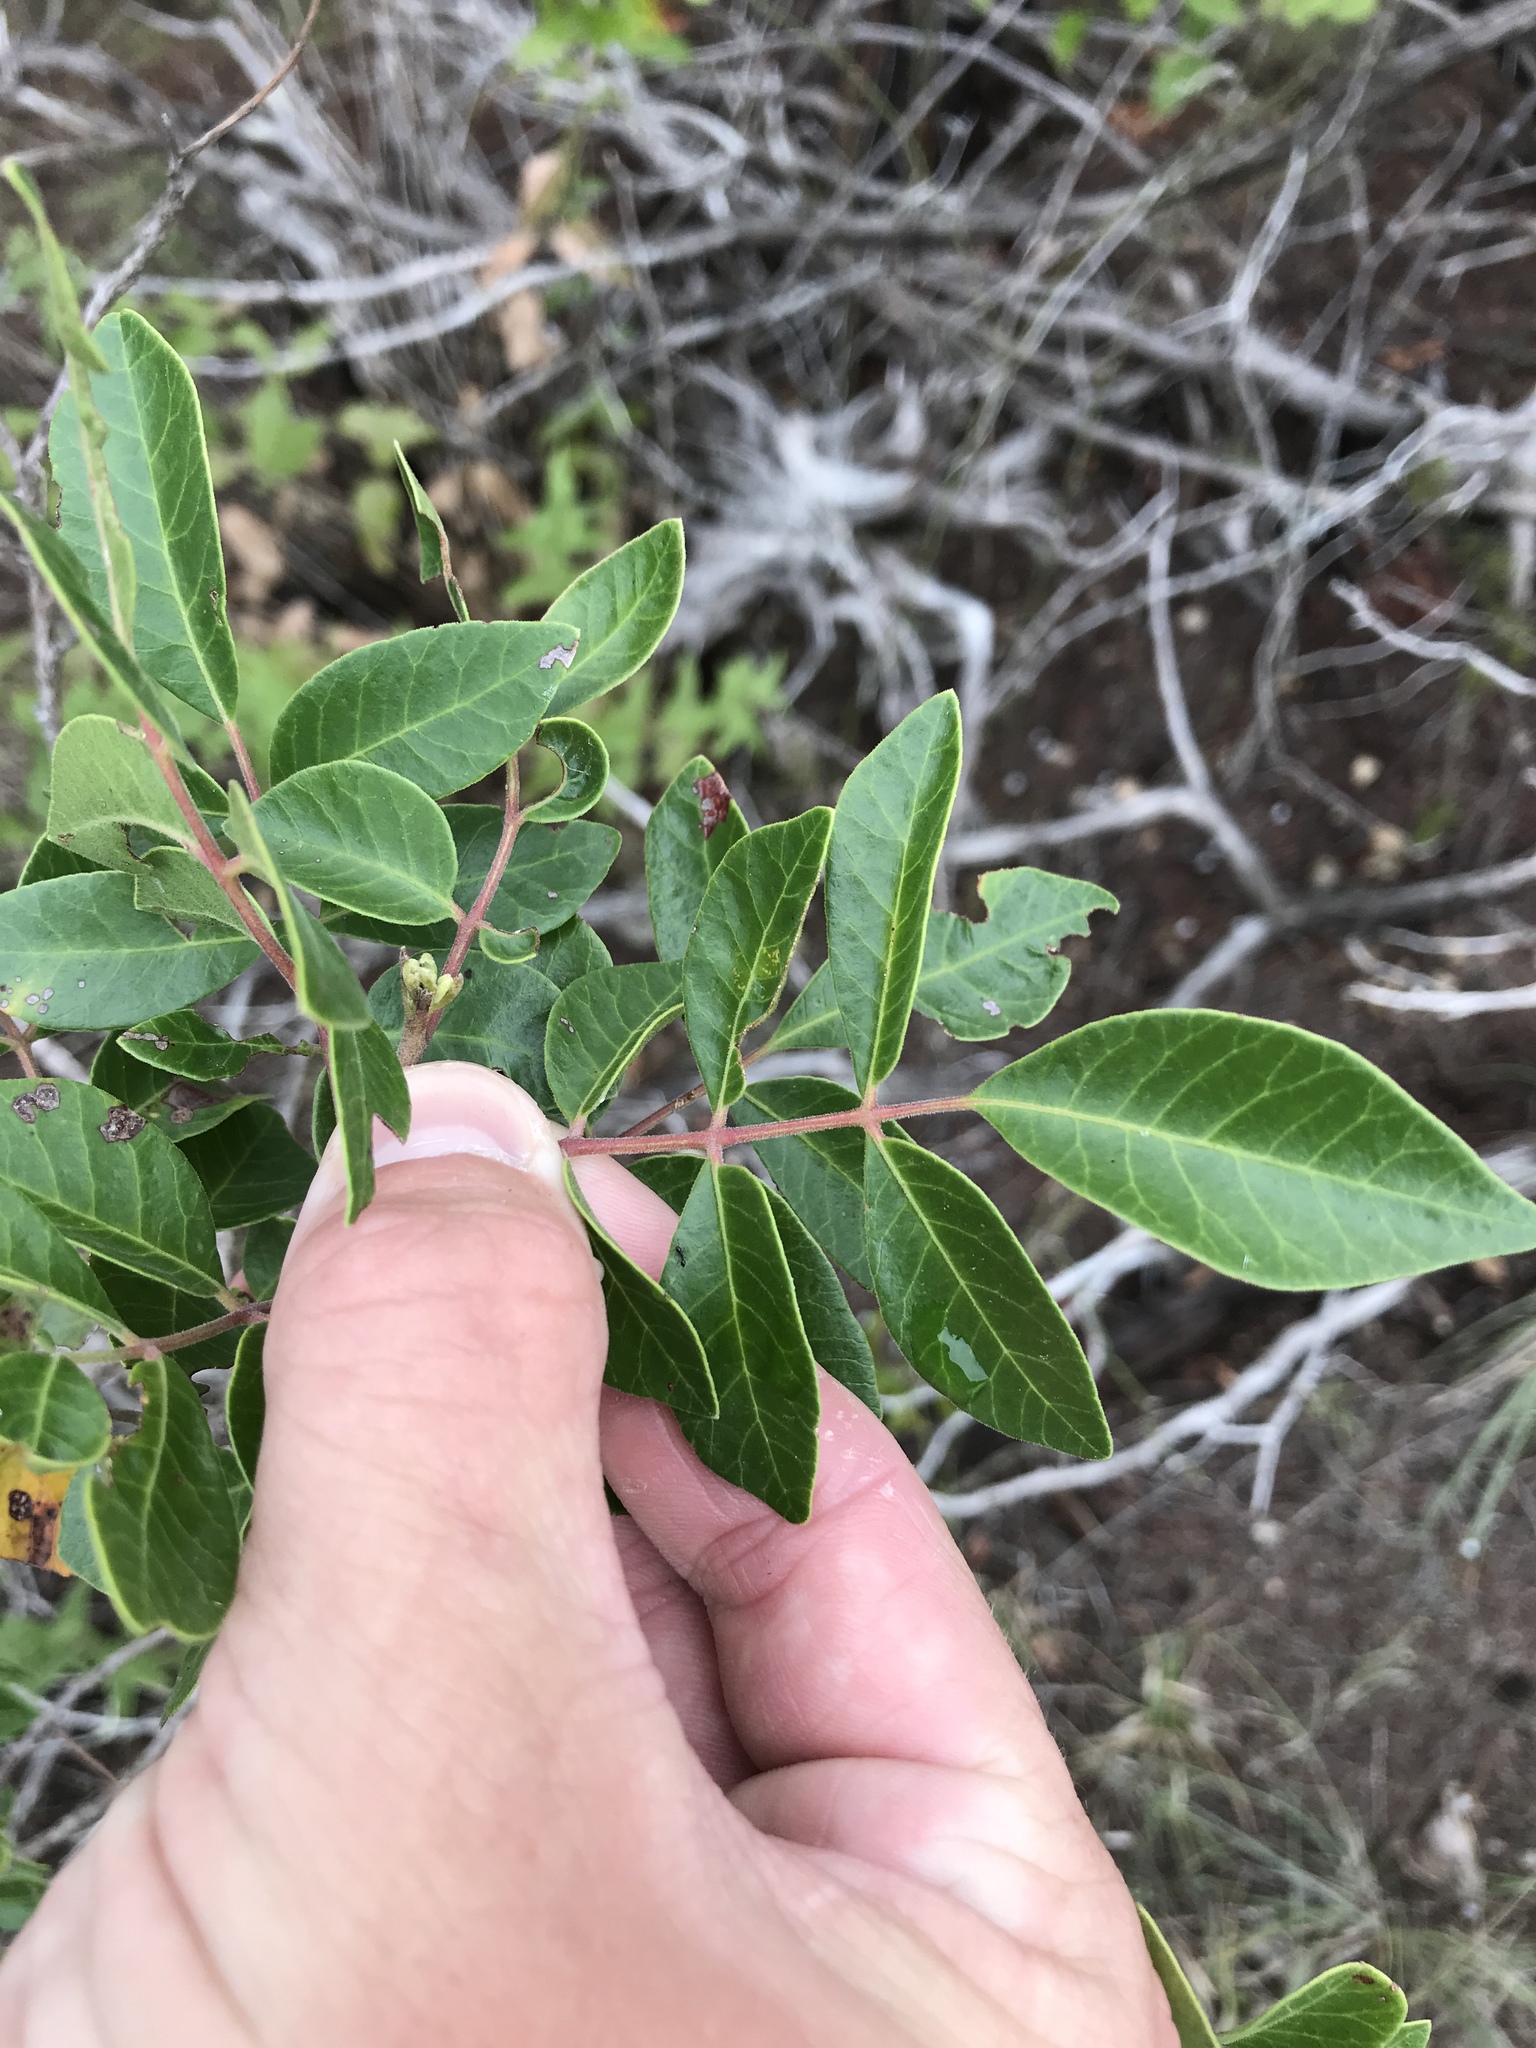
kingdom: Plantae
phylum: Tracheophyta
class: Magnoliopsida
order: Sapindales
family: Anacardiaceae
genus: Rhus
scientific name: Rhus virens
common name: Evergreen sumac
